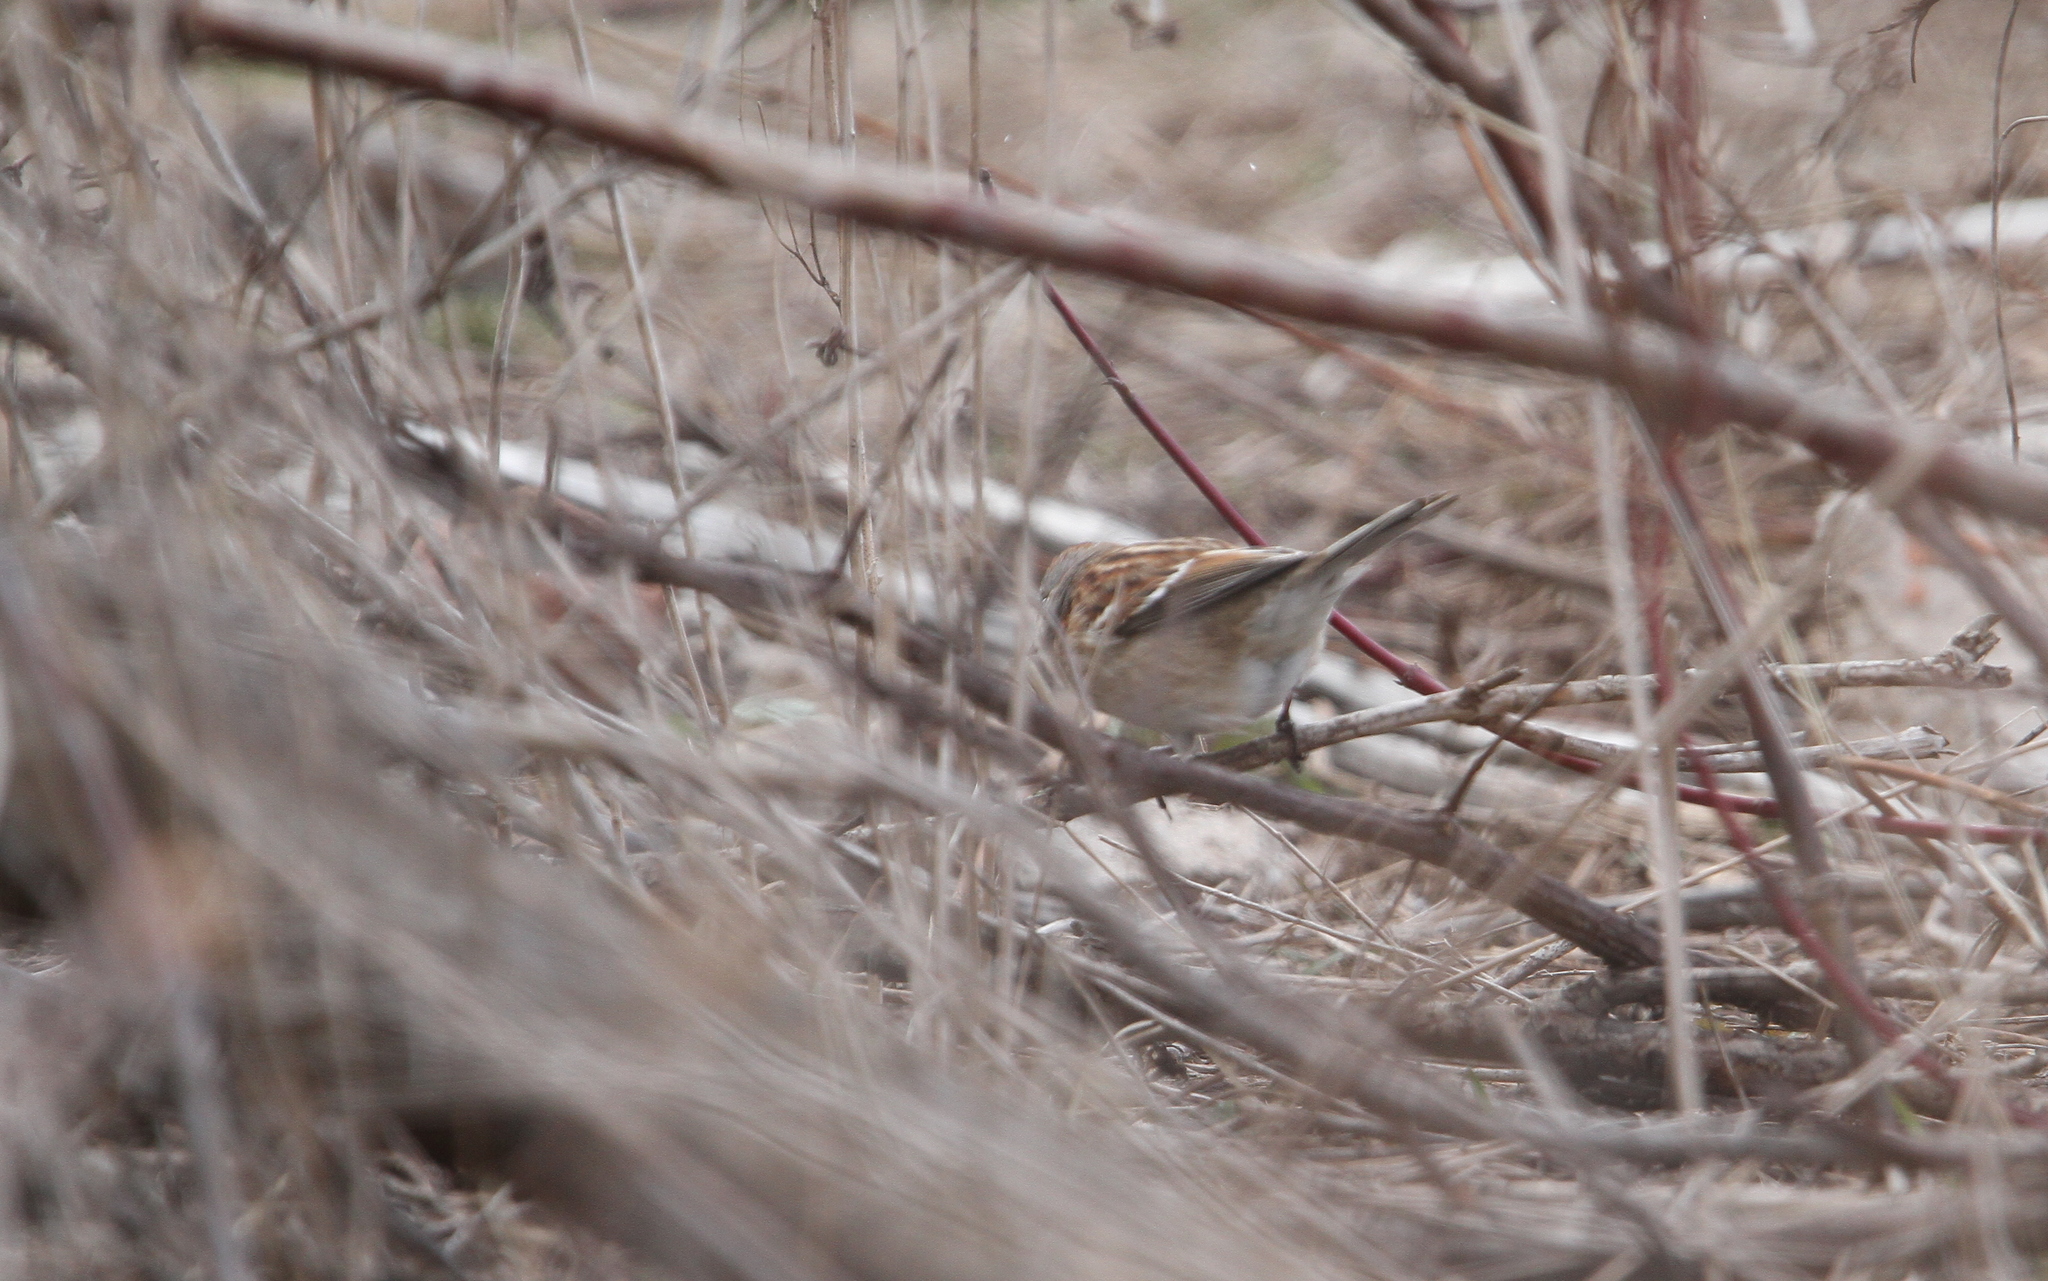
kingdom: Animalia
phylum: Chordata
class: Aves
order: Passeriformes
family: Passerellidae
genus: Spizelloides
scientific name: Spizelloides arborea
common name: American tree sparrow
